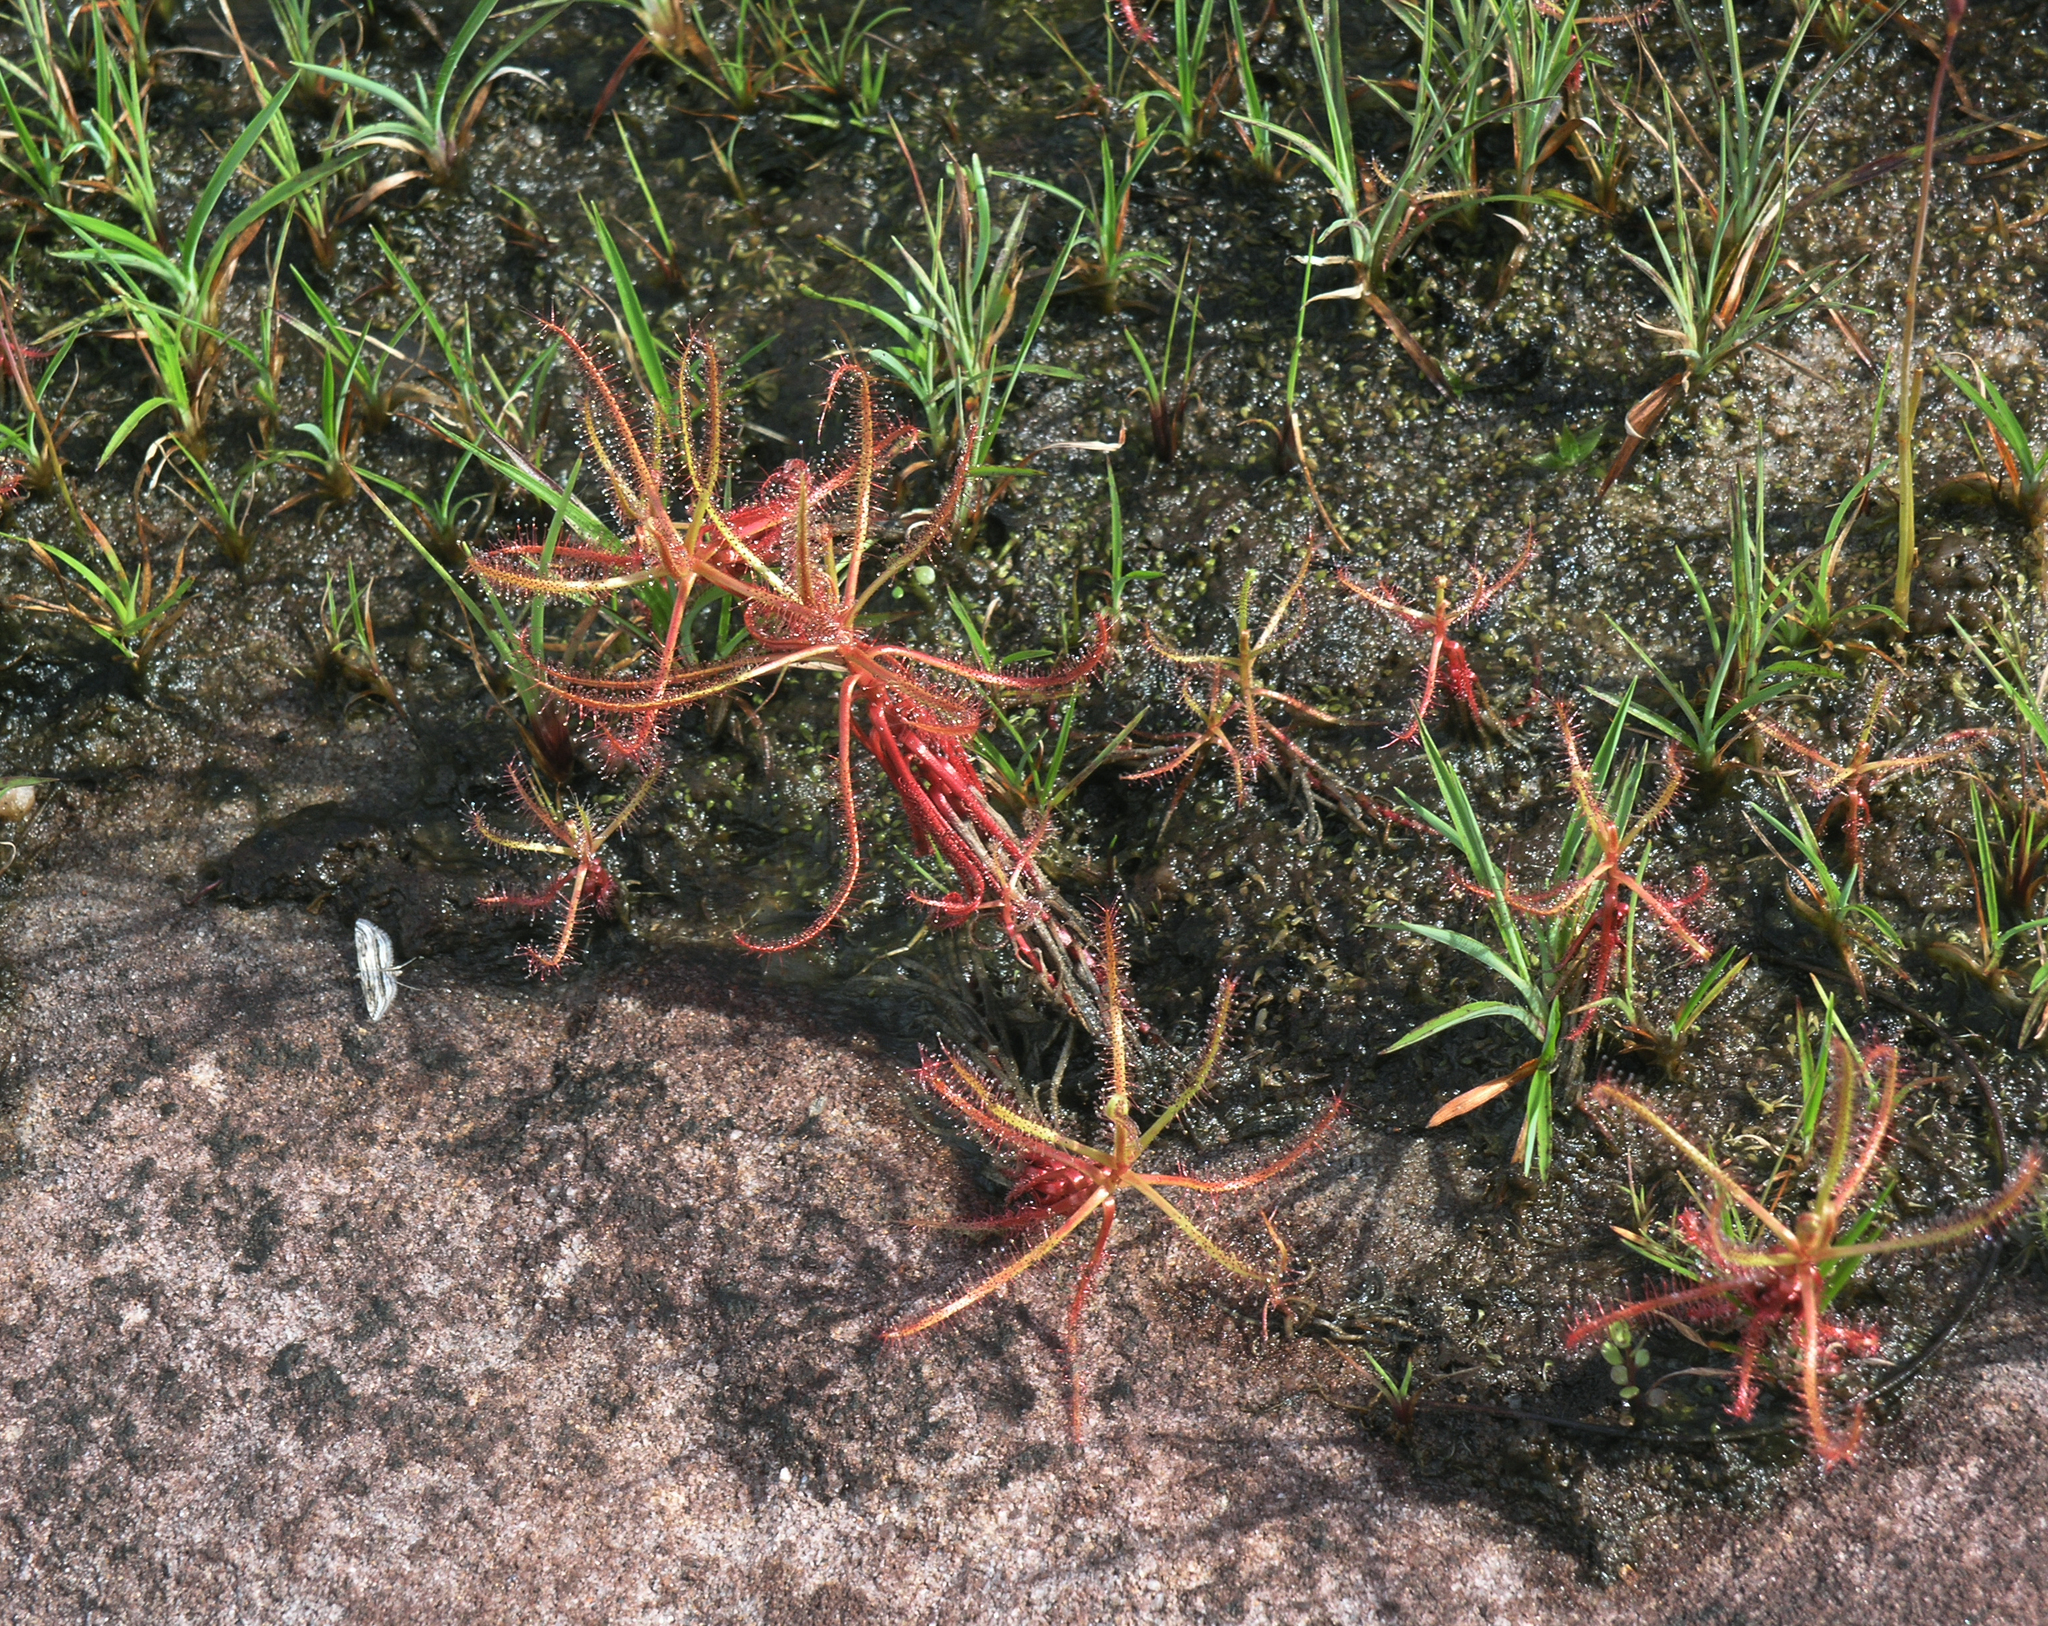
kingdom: Plantae
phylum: Tracheophyta
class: Magnoliopsida
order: Caryophyllales
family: Droseraceae
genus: Drosera
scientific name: Drosera indica
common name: Indian sundew
